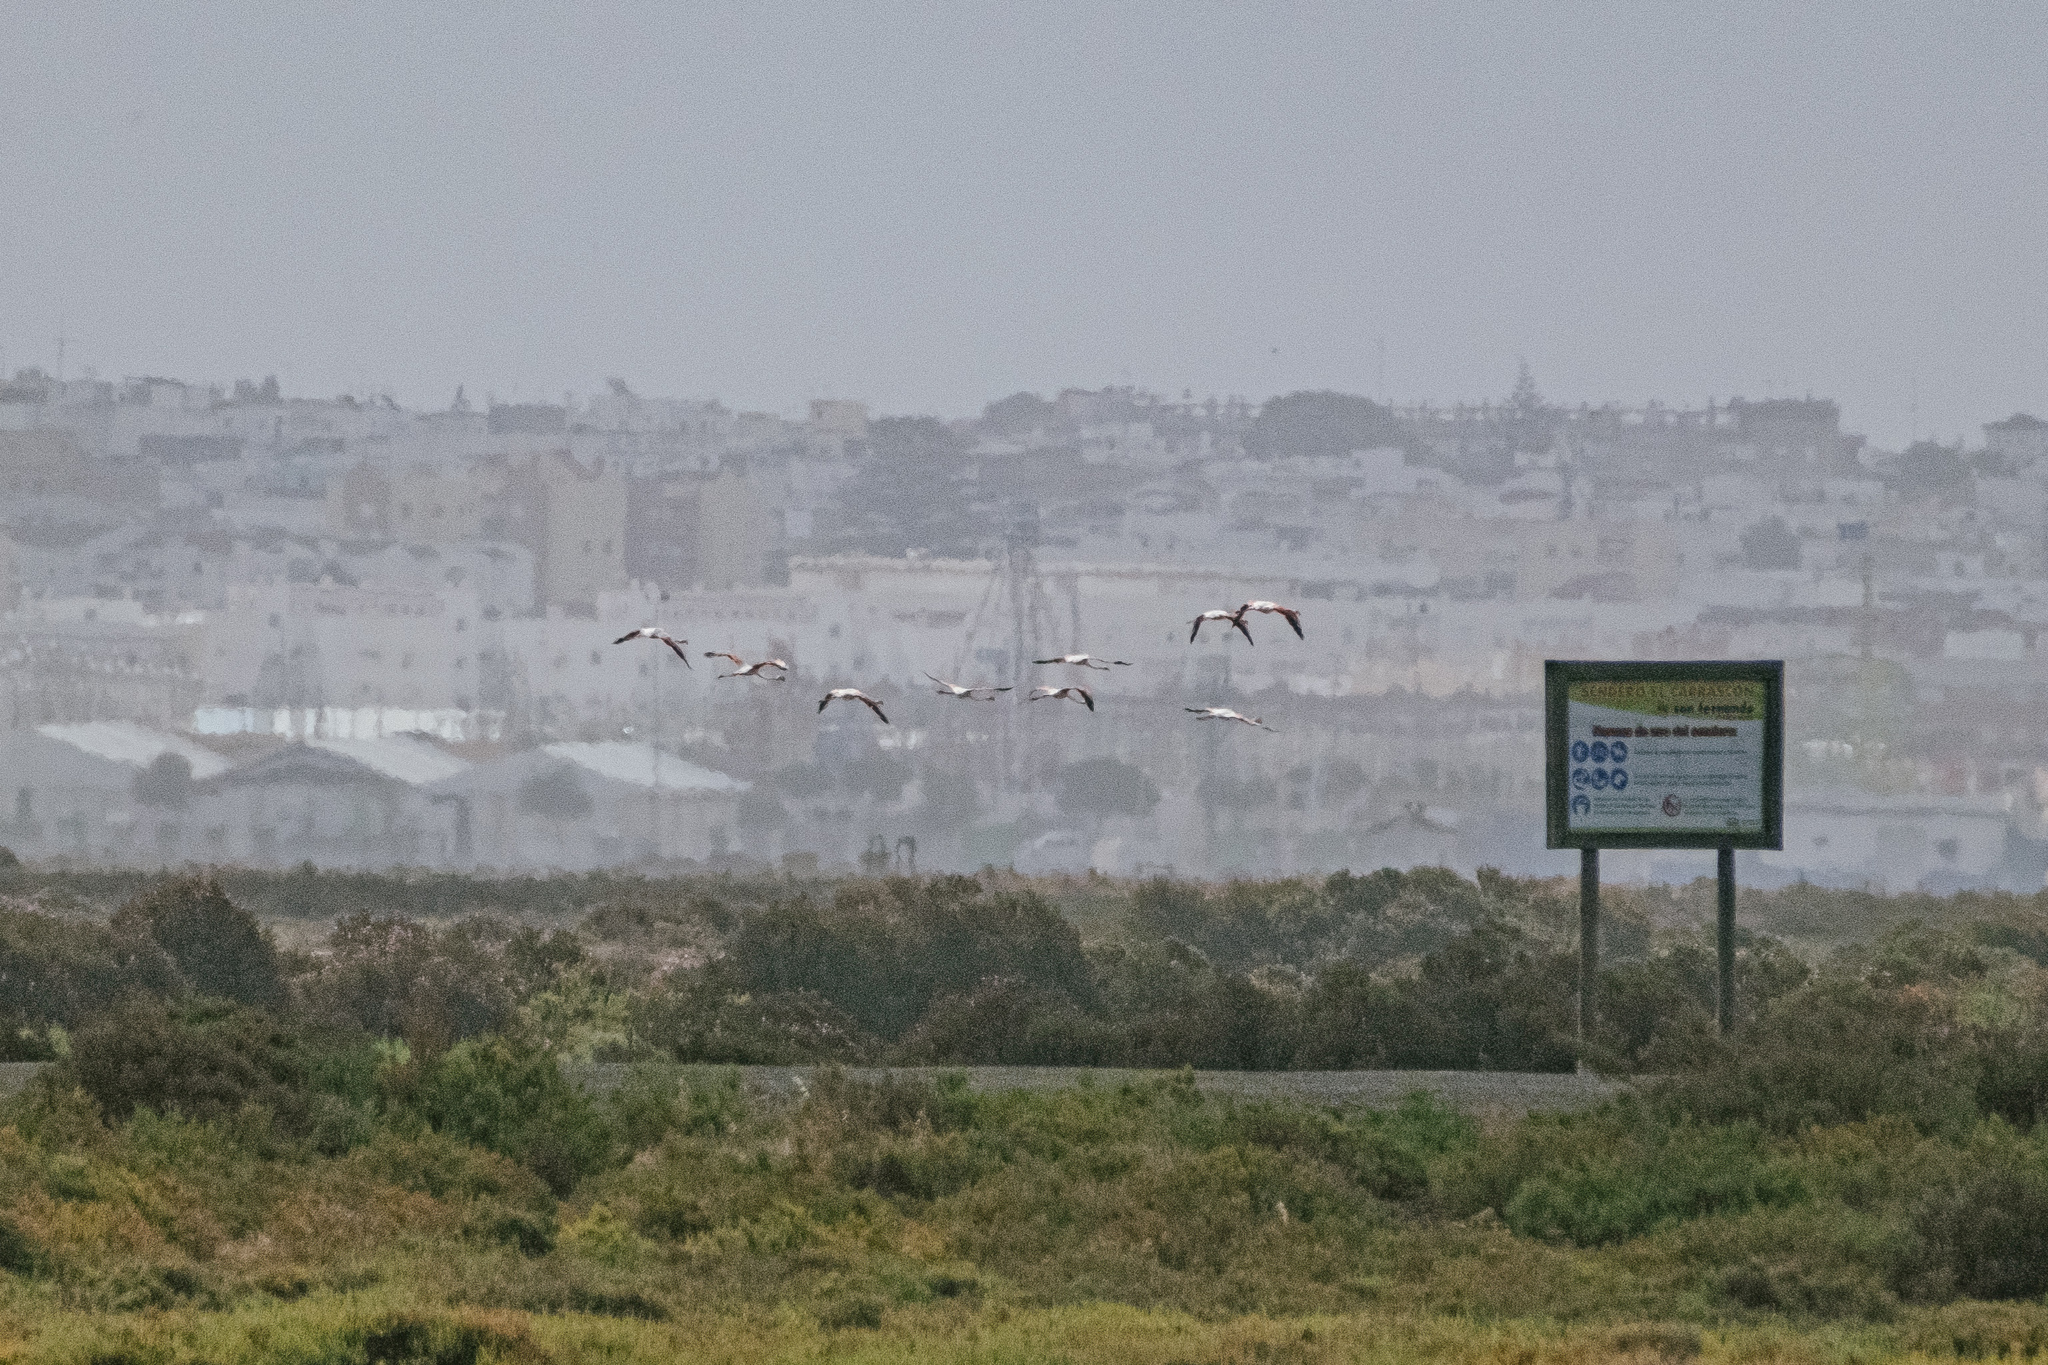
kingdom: Animalia
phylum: Chordata
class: Aves
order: Phoenicopteriformes
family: Phoenicopteridae
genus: Phoenicopterus
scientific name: Phoenicopterus roseus
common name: Greater flamingo
